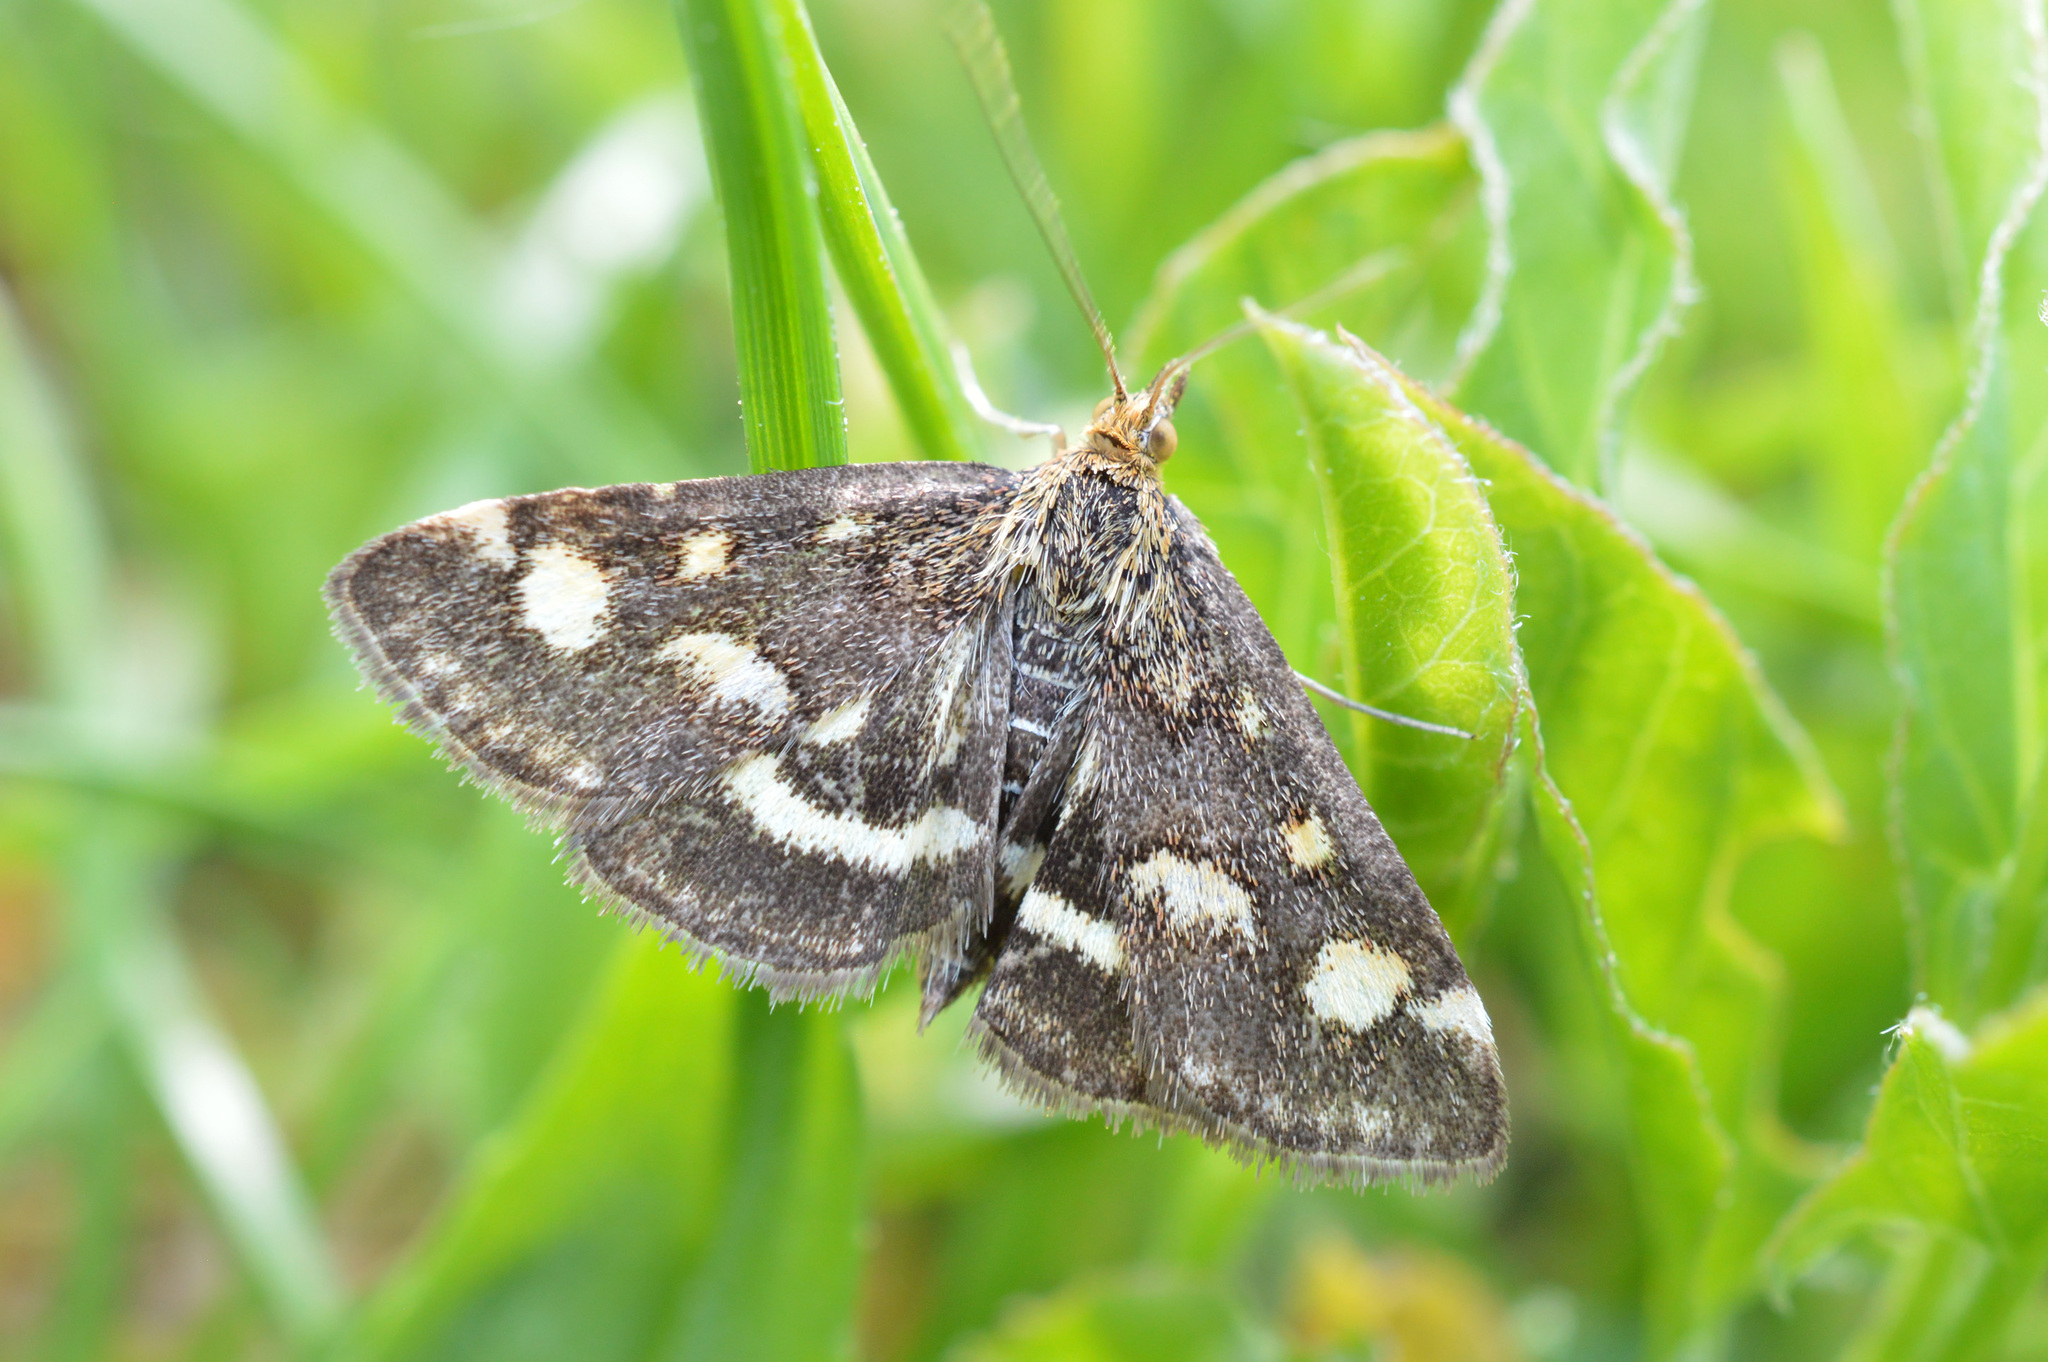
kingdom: Animalia
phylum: Arthropoda
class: Insecta
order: Lepidoptera
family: Crambidae
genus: Pyrausta
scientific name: Pyrausta purpuralis
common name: Common purple & gold
